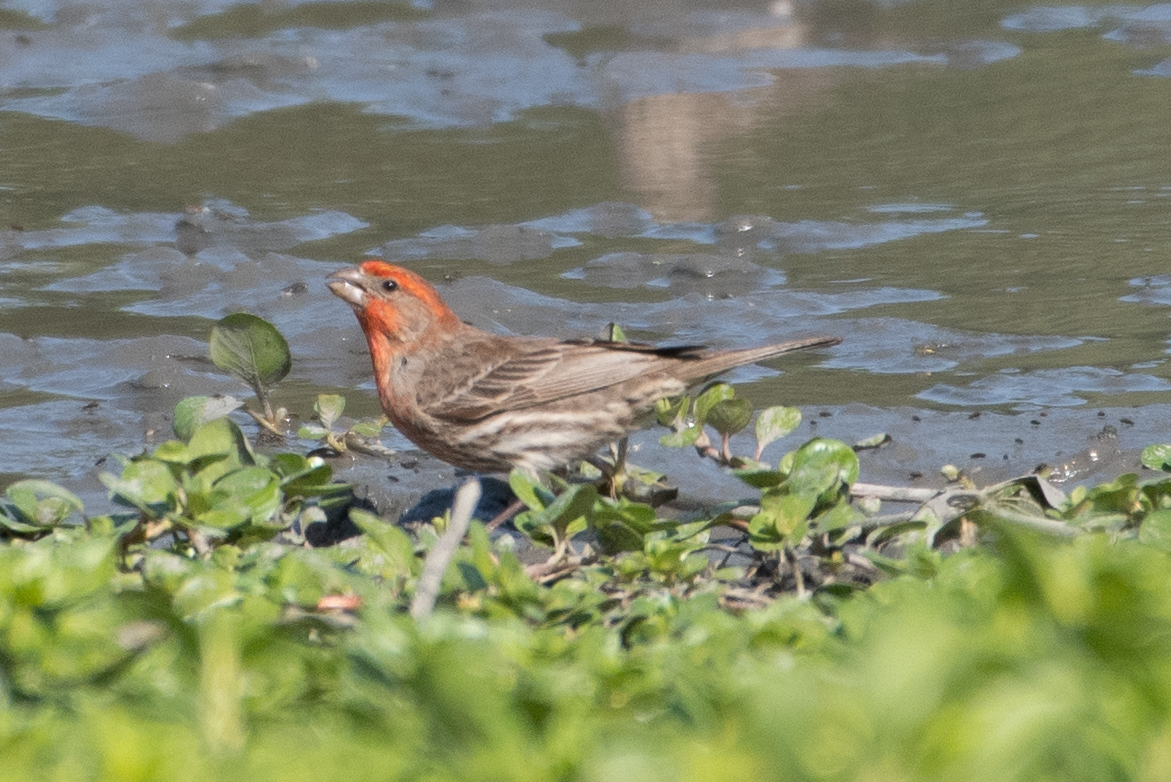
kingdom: Animalia
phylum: Chordata
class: Aves
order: Passeriformes
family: Fringillidae
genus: Haemorhous
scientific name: Haemorhous mexicanus
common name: House finch
